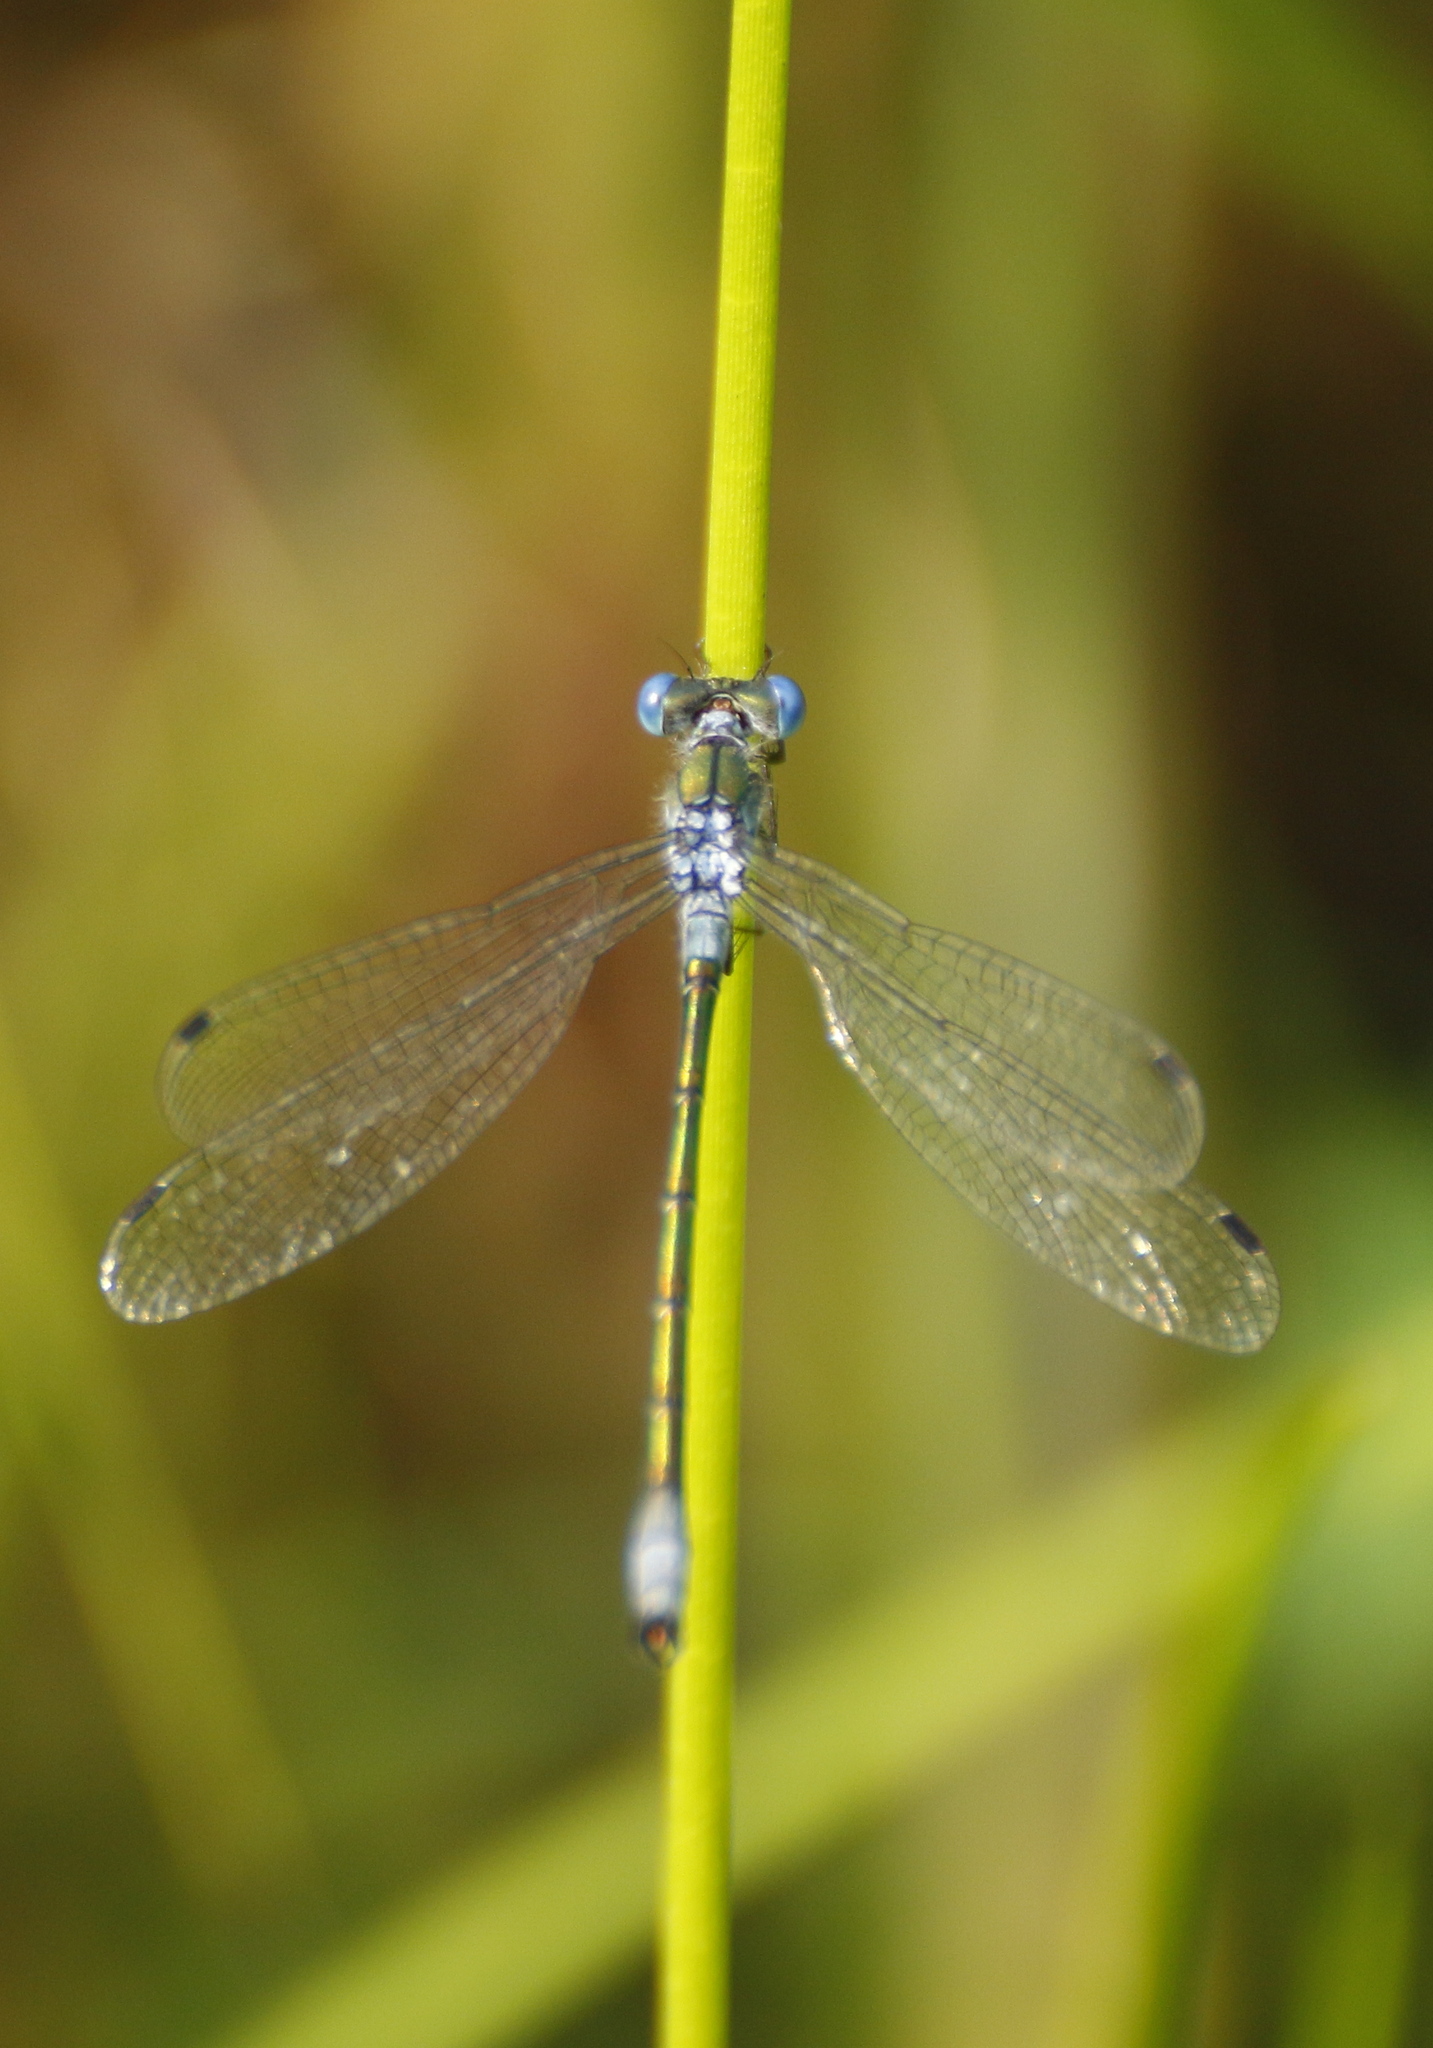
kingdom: Animalia
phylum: Arthropoda
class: Insecta
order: Odonata
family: Lestidae
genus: Lestes
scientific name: Lestes dryas
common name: Scarce emerald damselfly
